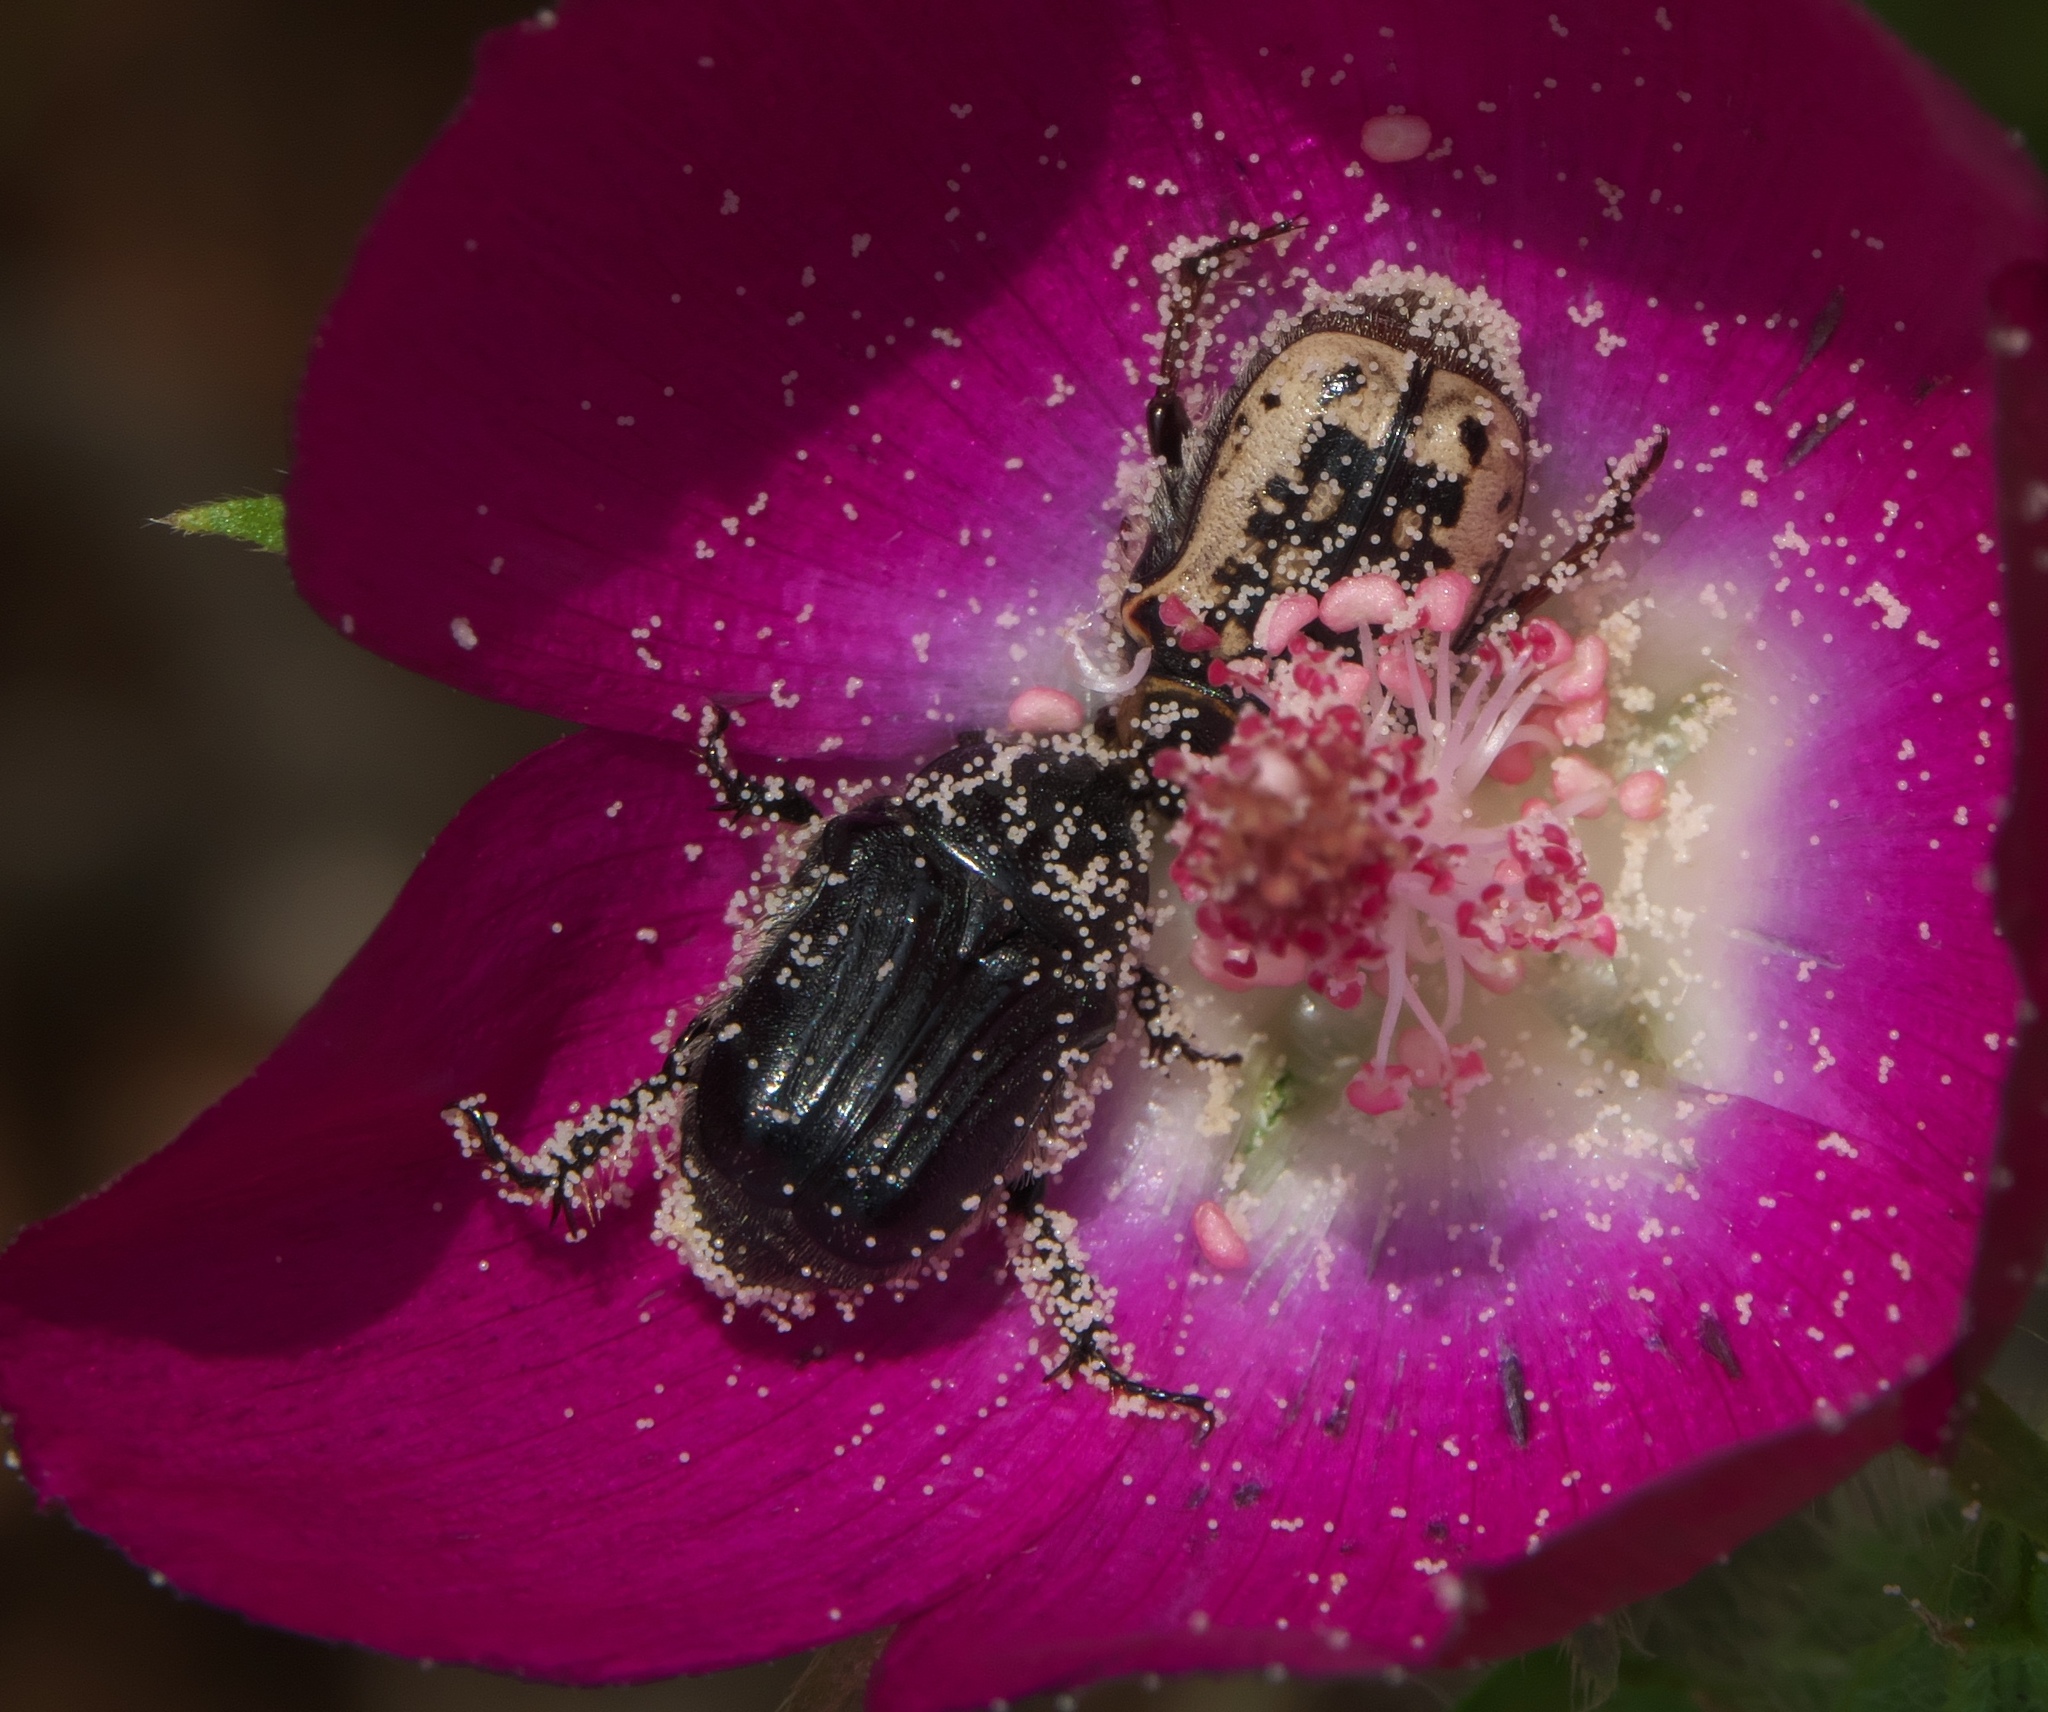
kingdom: Animalia
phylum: Arthropoda
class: Insecta
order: Coleoptera
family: Scarabaeidae
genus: Euphoria
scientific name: Euphoria kernii
